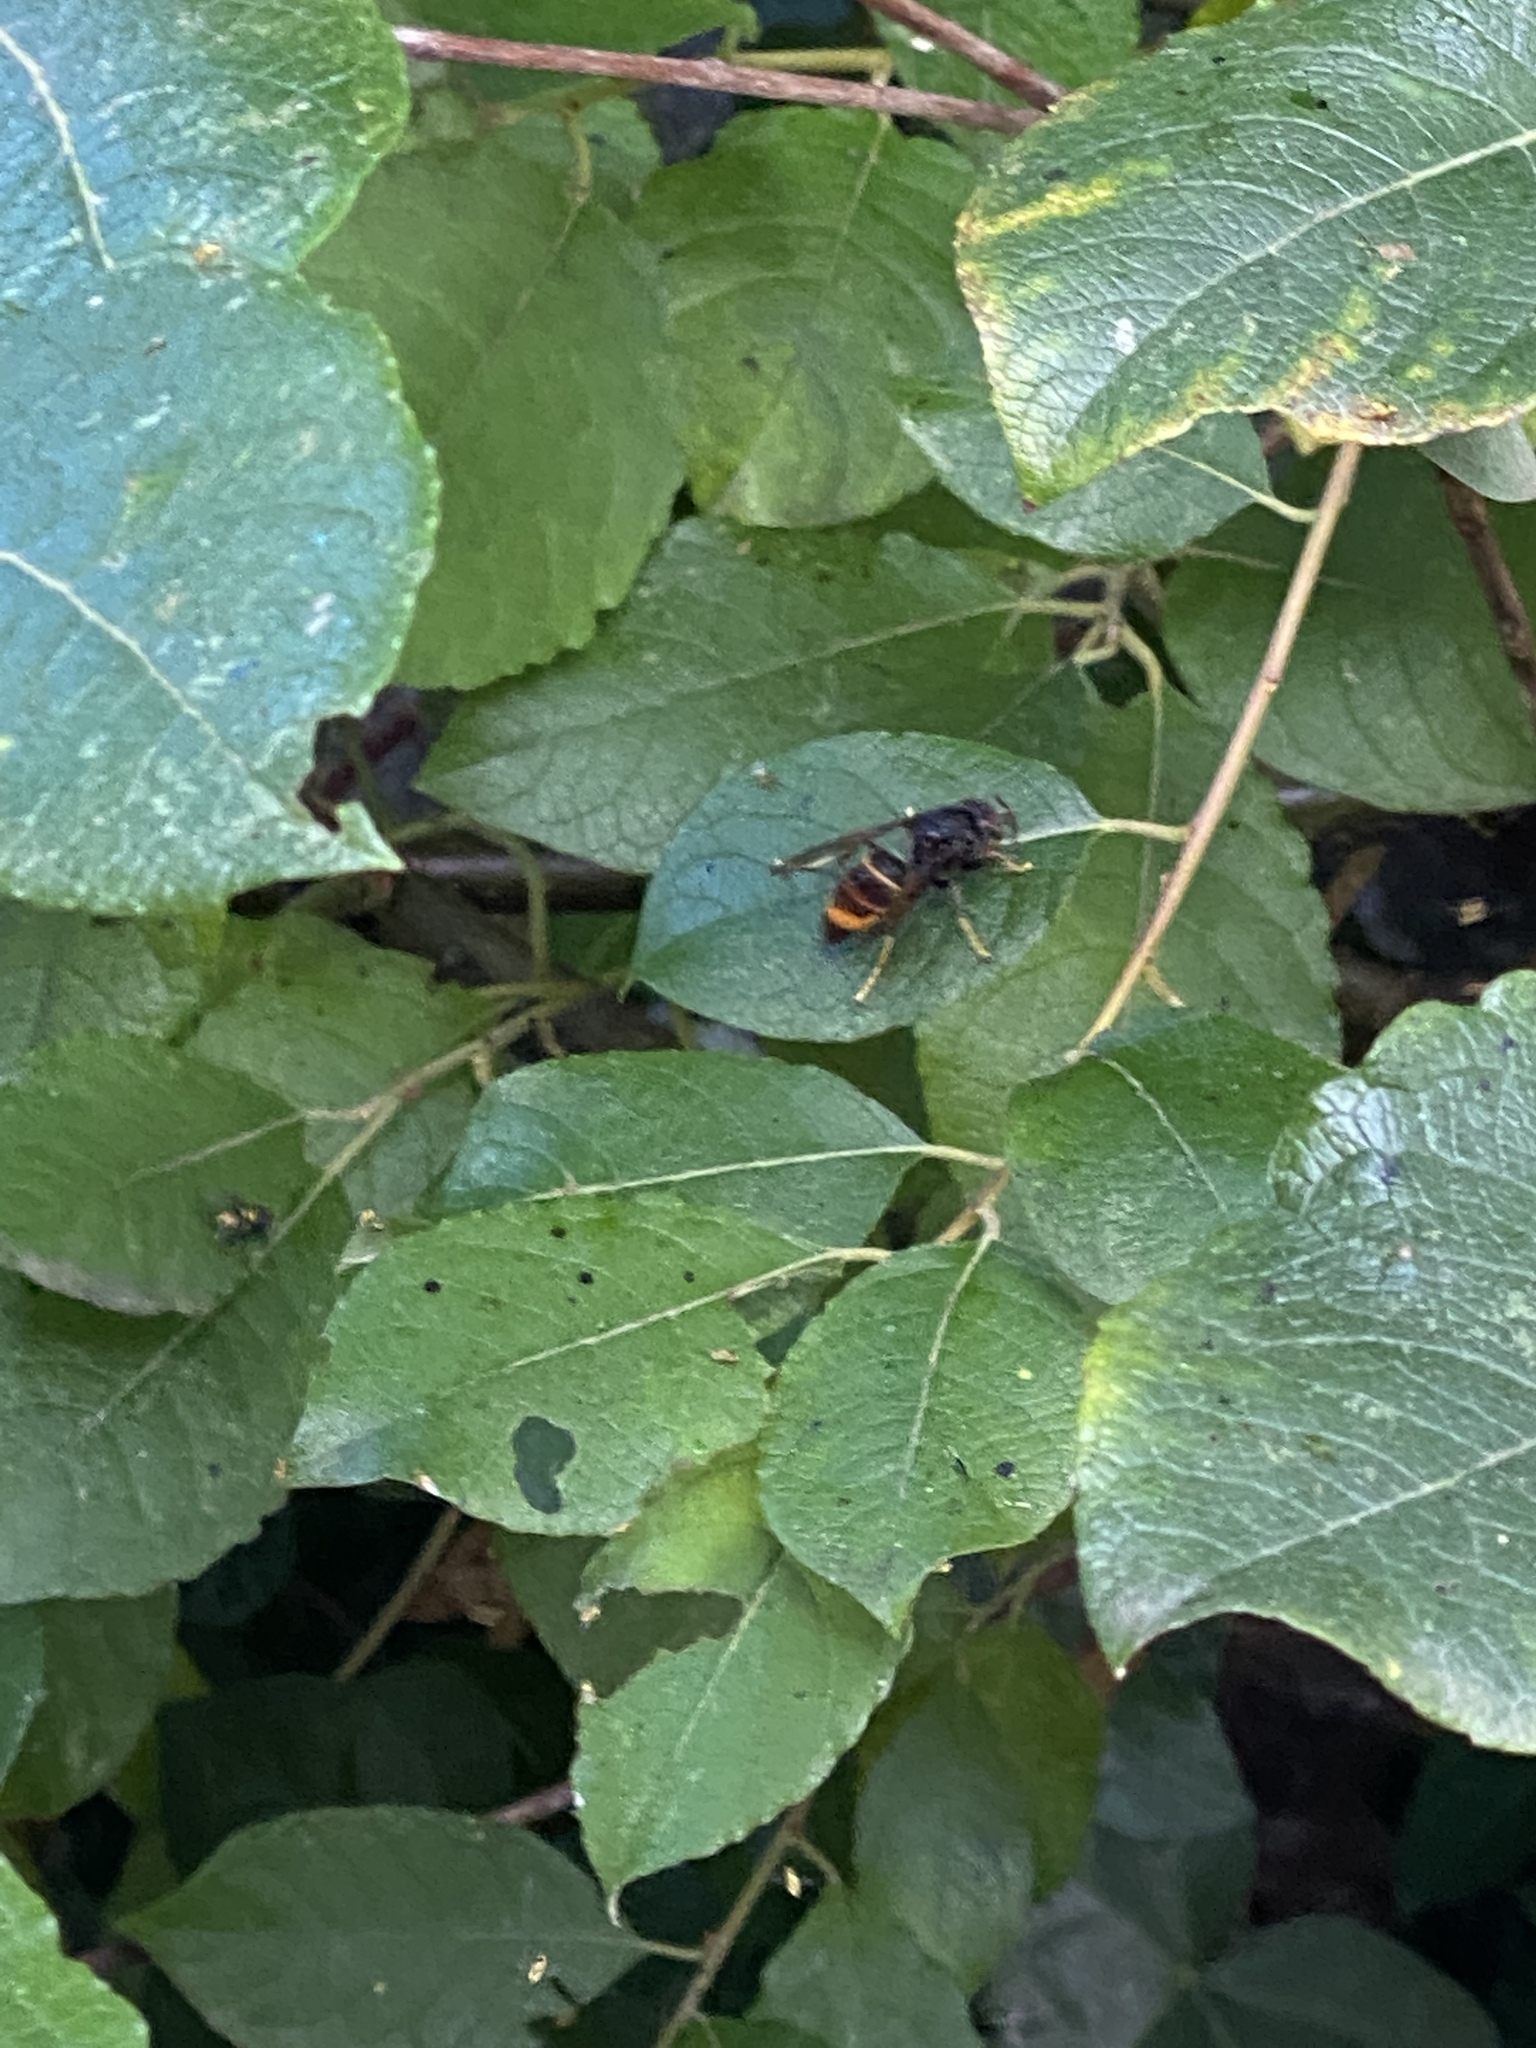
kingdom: Animalia
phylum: Arthropoda
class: Insecta
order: Hymenoptera
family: Vespidae
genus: Vespa
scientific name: Vespa velutina
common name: Asian hornet
